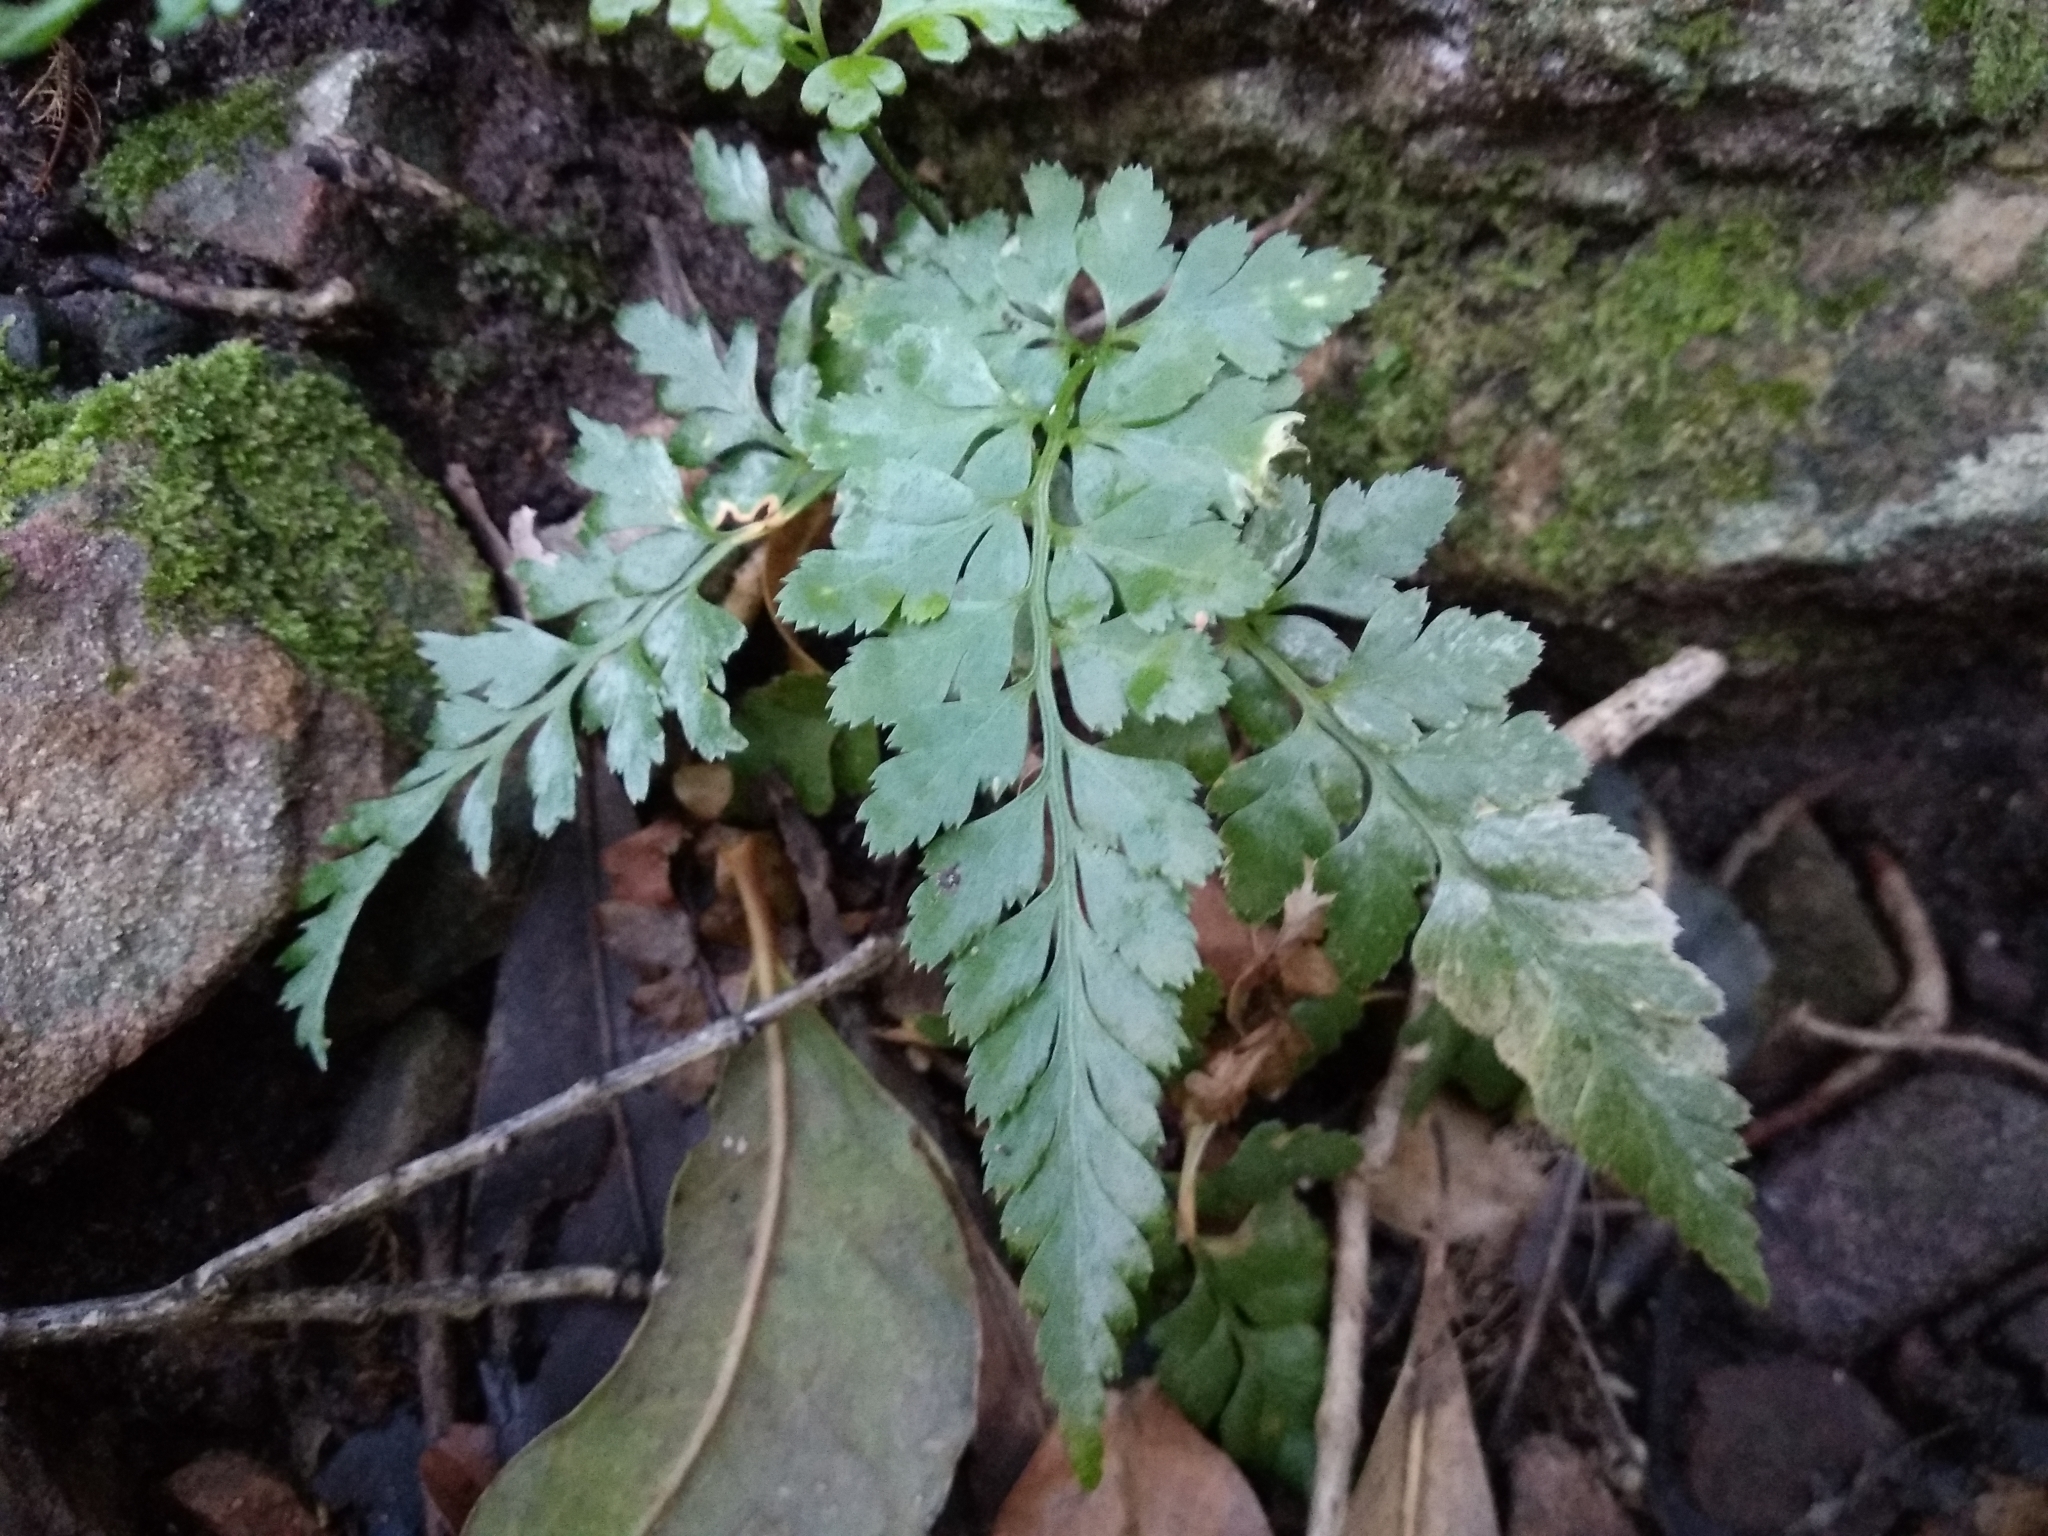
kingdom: Plantae
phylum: Tracheophyta
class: Polypodiopsida
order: Polypodiales
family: Aspleniaceae
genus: Asplenium
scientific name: Asplenium adiantum-nigrum
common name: Black spleenwort
